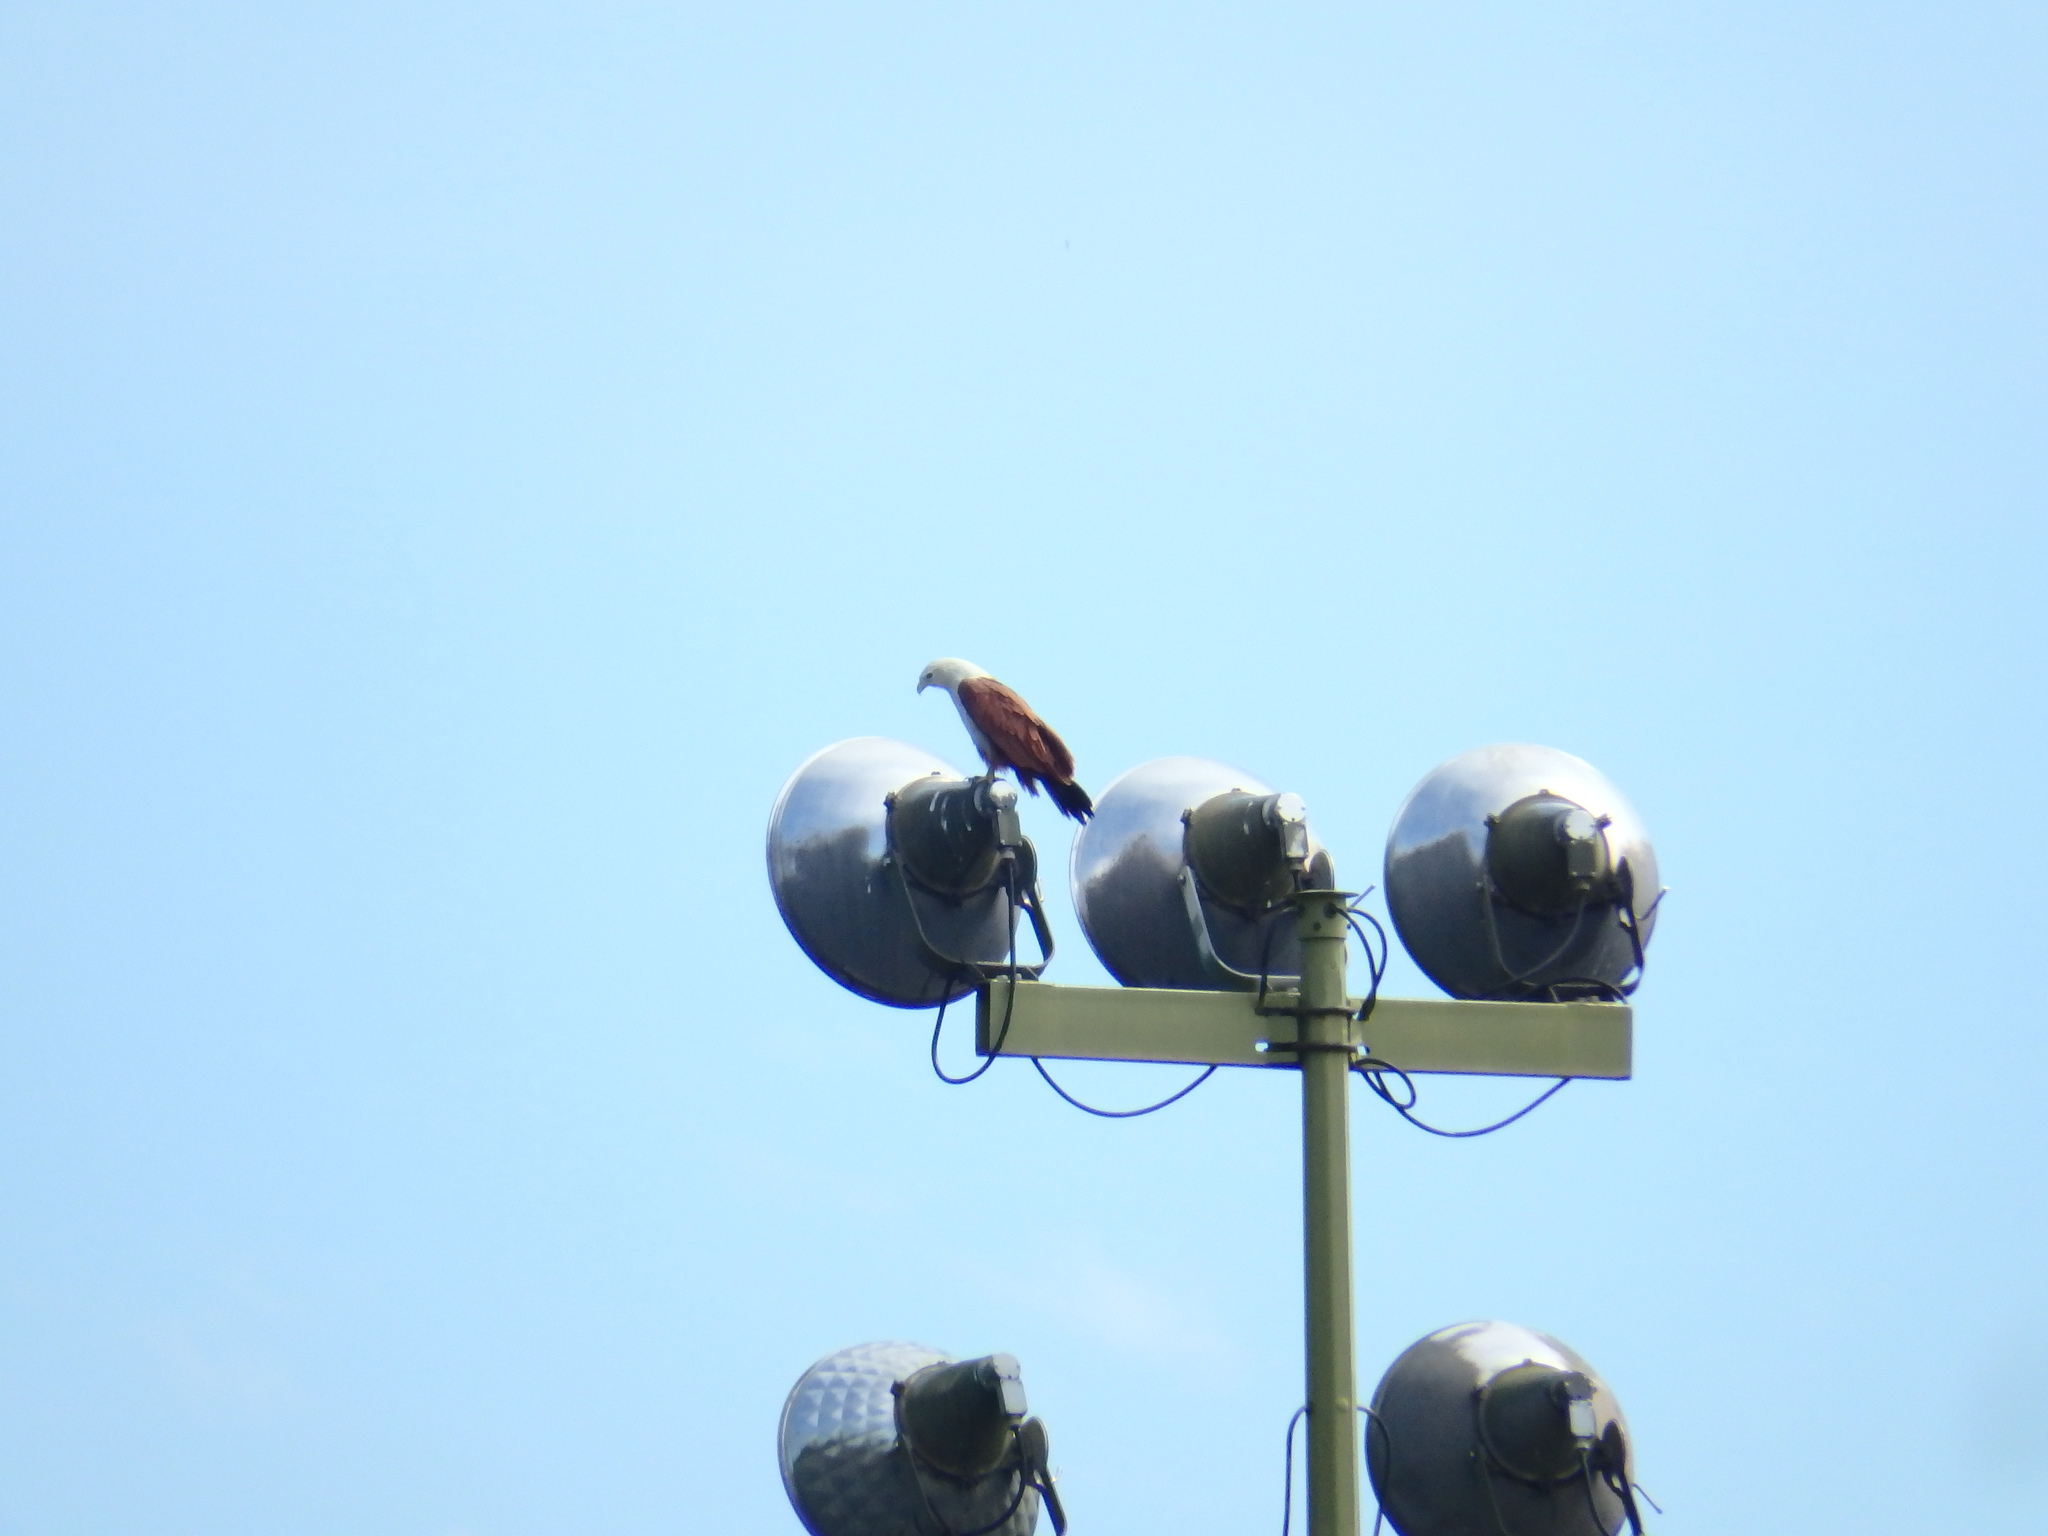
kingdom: Animalia
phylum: Chordata
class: Aves
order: Accipitriformes
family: Accipitridae
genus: Haliastur
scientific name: Haliastur indus
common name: Brahminy kite
